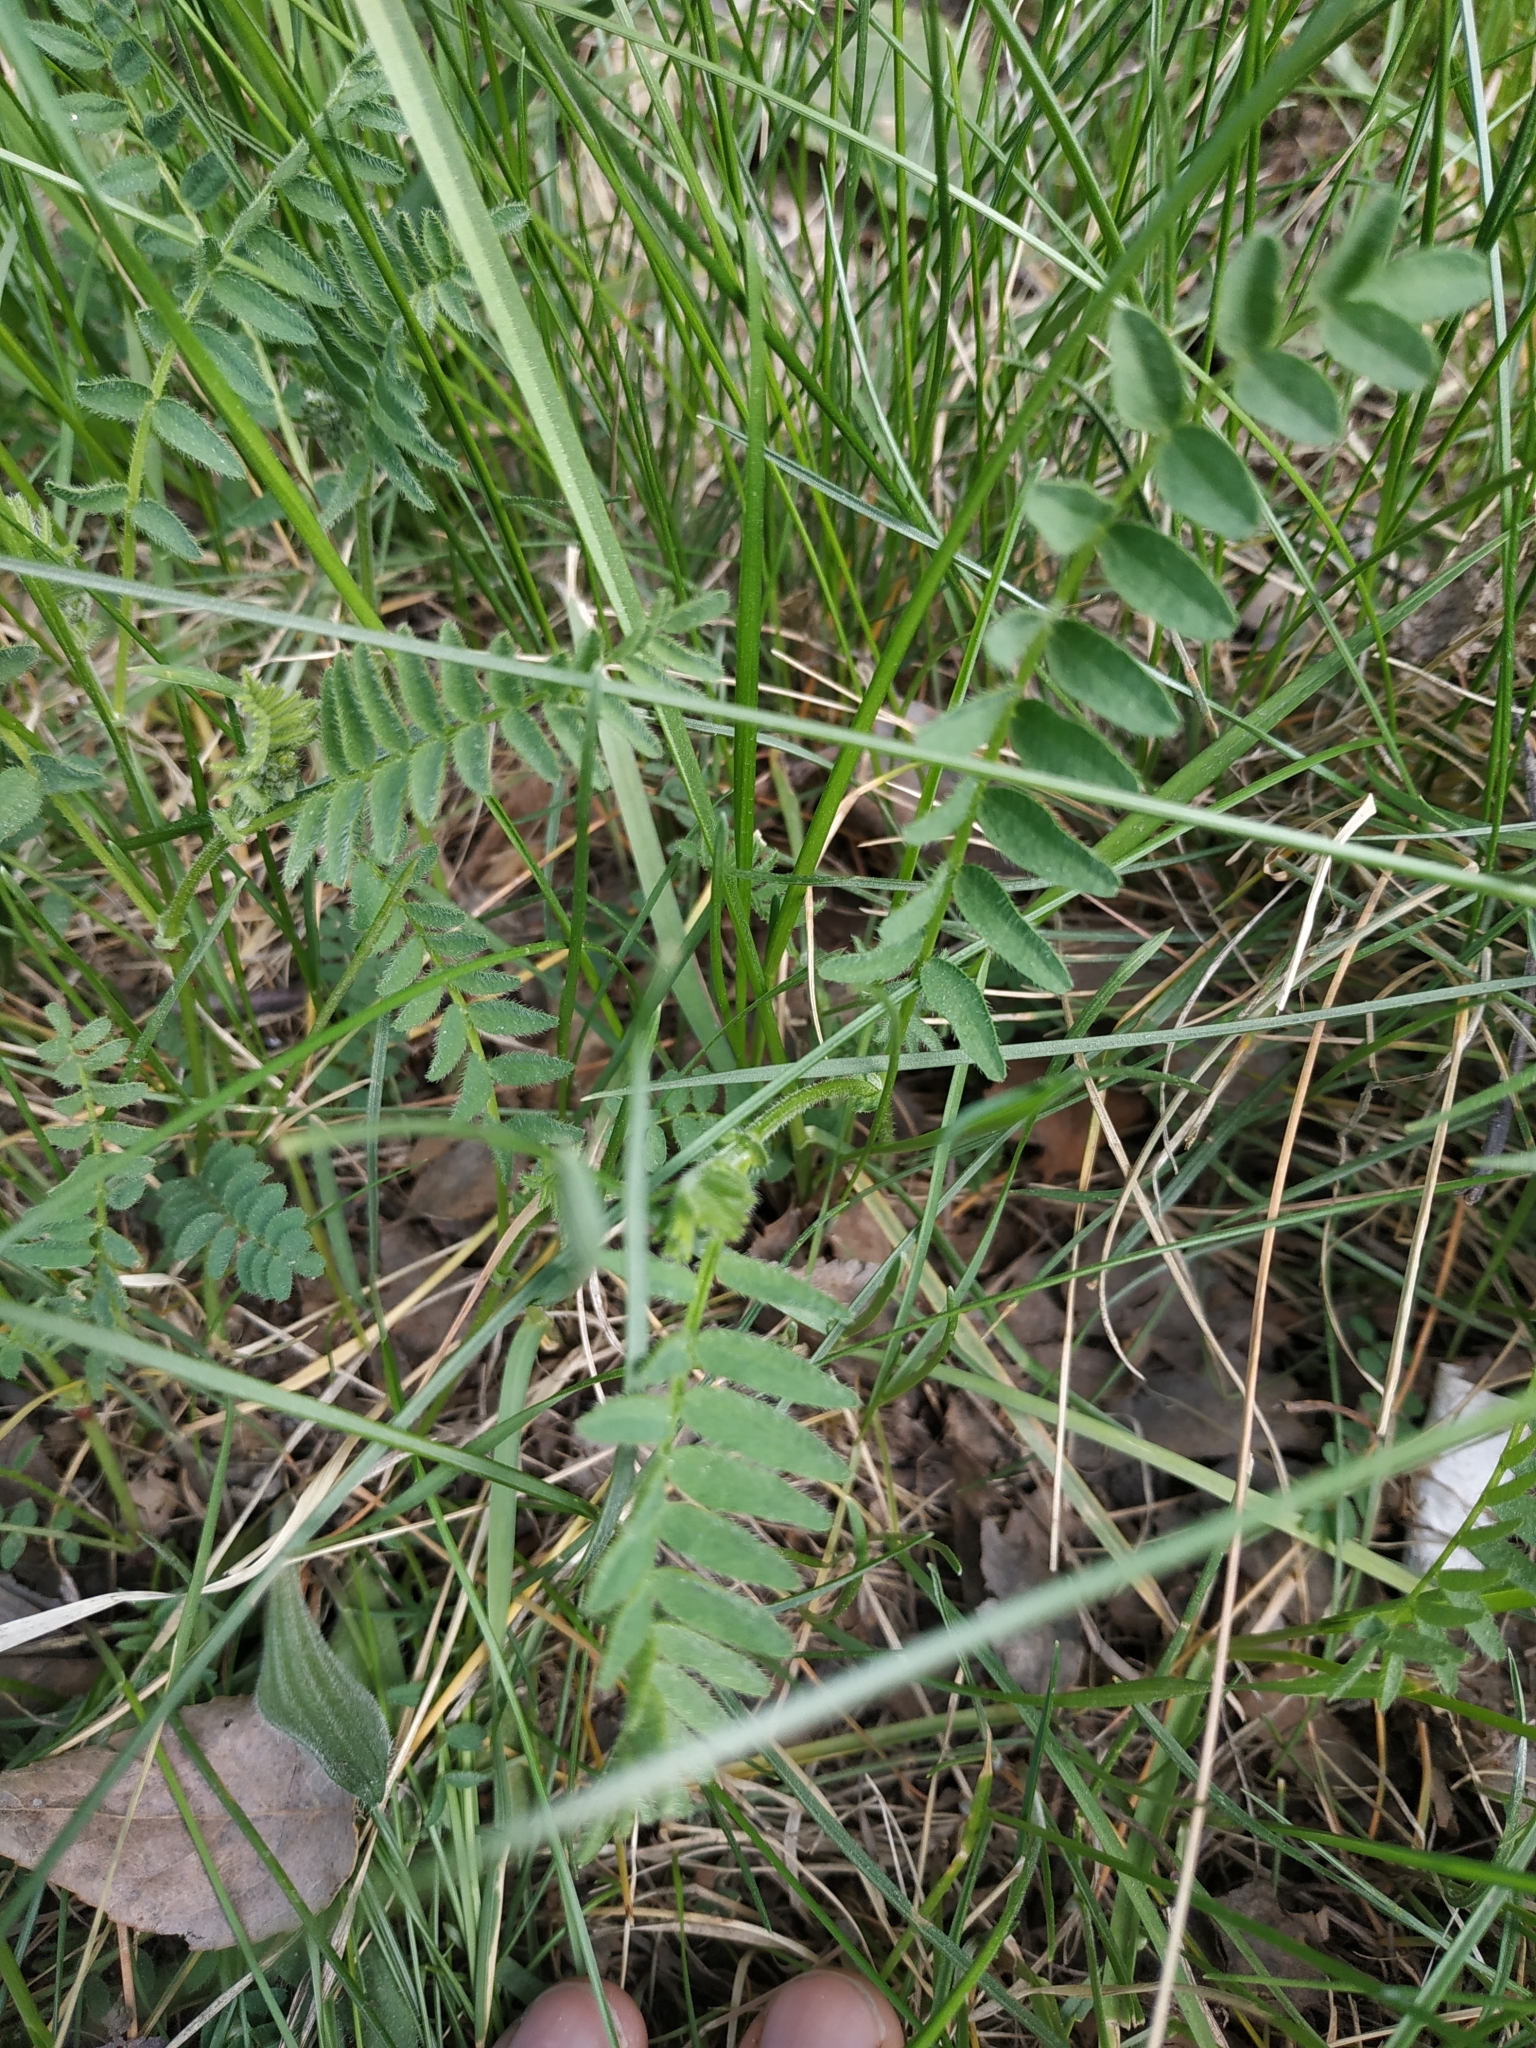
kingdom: Plantae
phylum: Tracheophyta
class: Magnoliopsida
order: Fabales
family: Fabaceae
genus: Astragalus
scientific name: Astragalus danicus
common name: Purple milk-vetch
